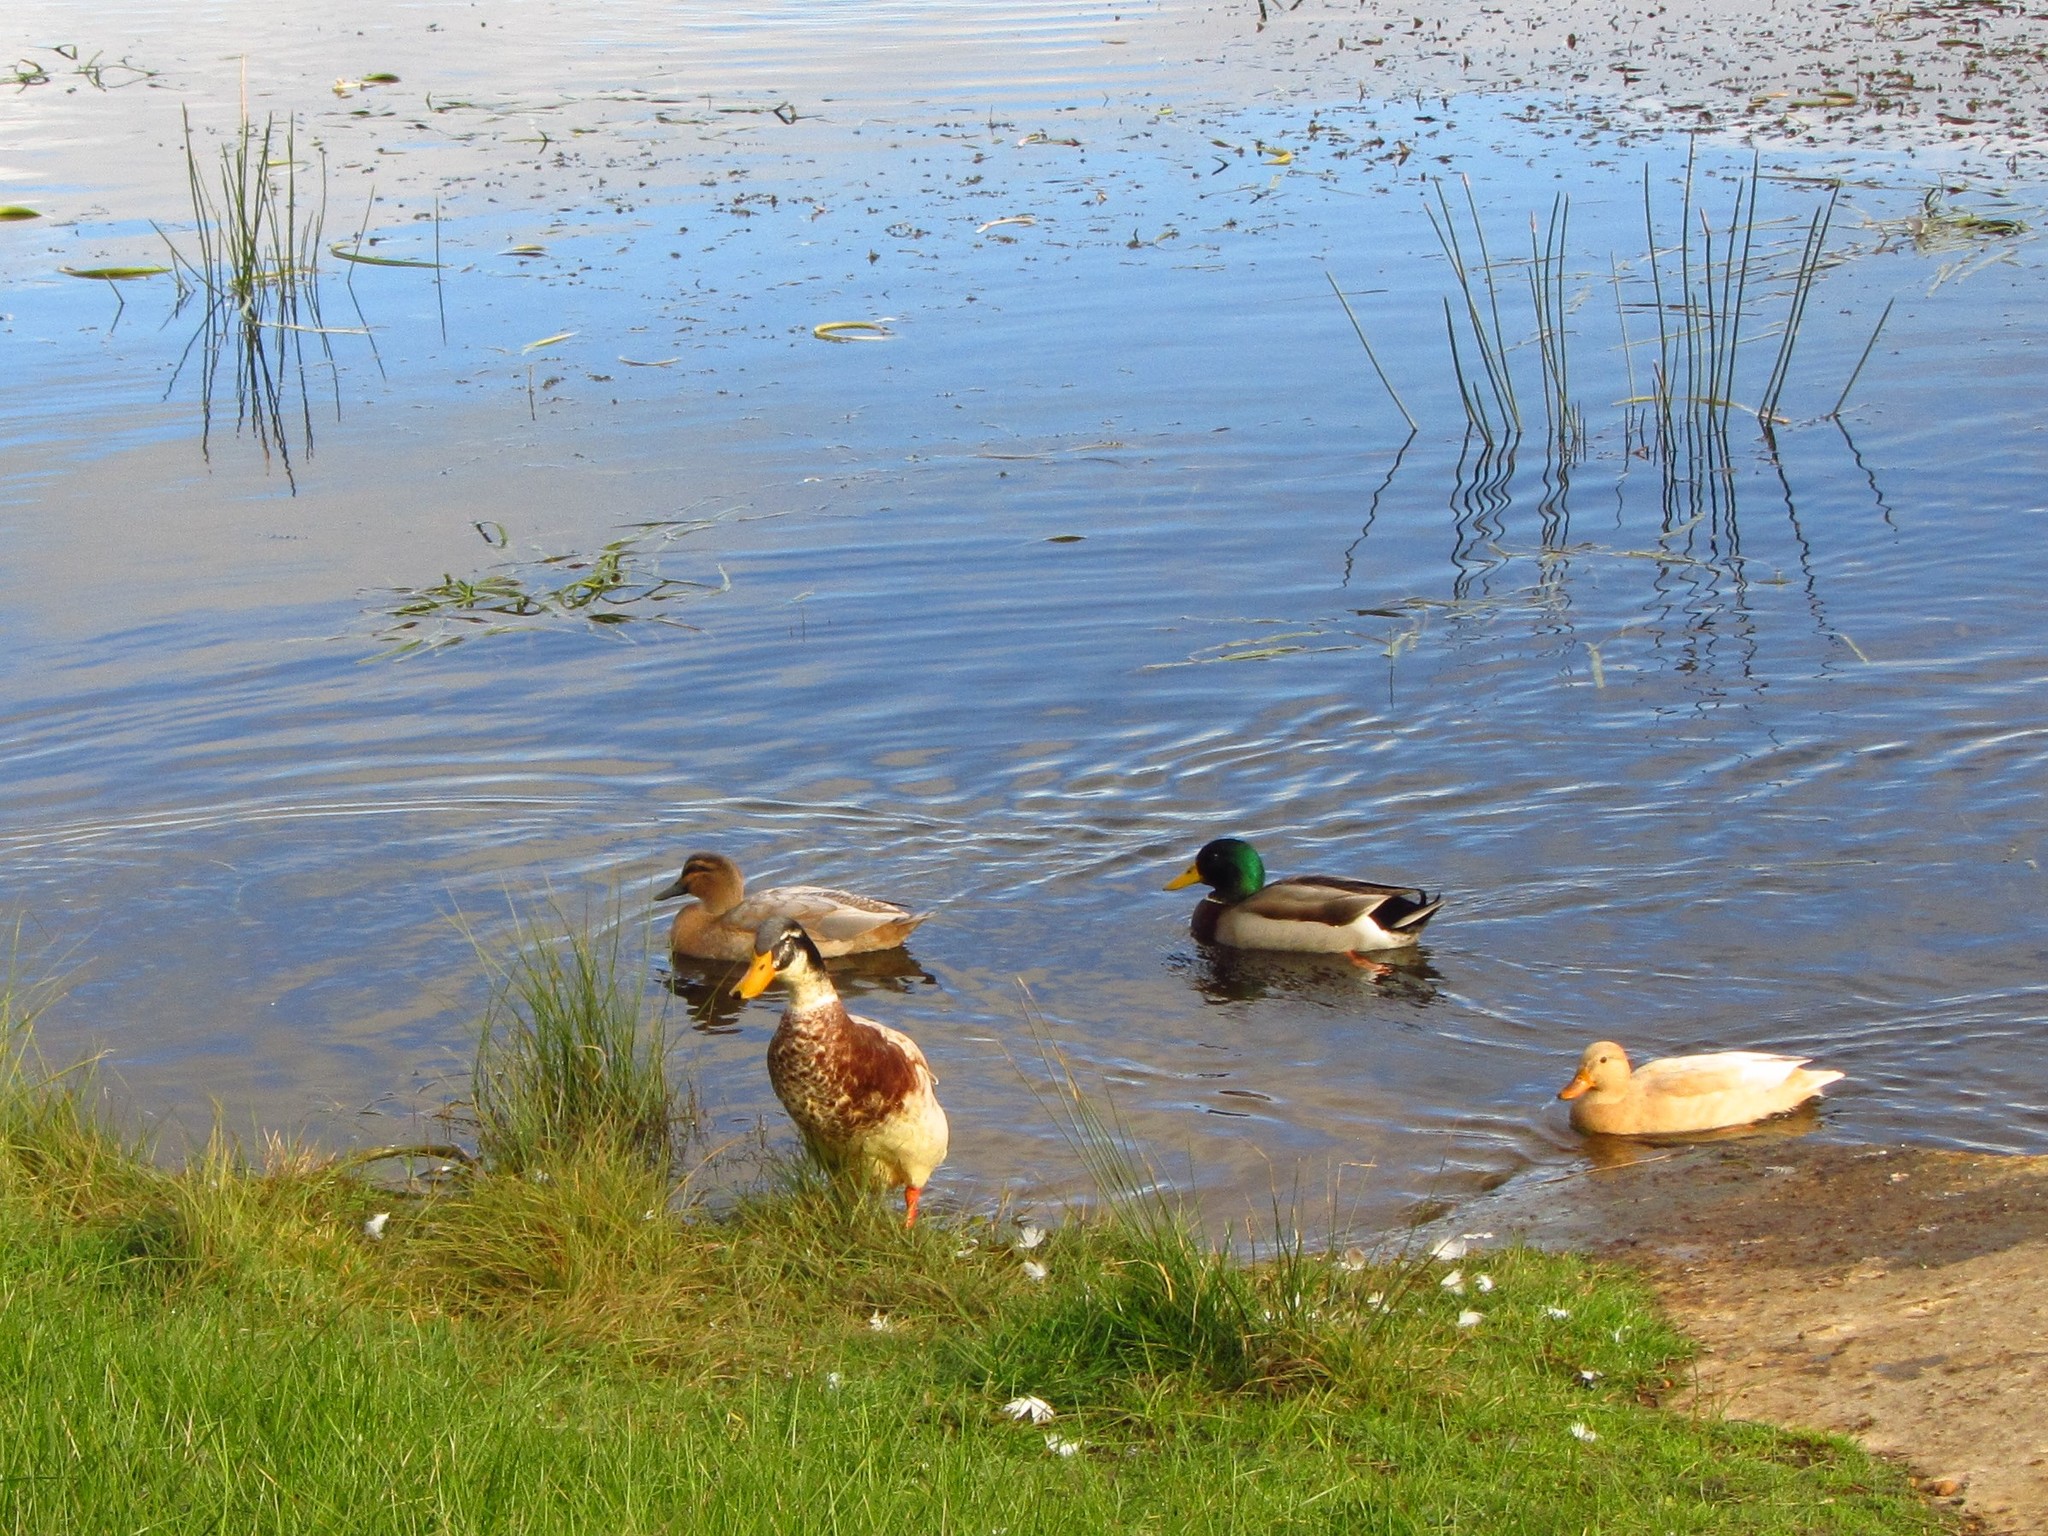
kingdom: Animalia
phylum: Chordata
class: Aves
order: Anseriformes
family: Anatidae
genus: Anas
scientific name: Anas platyrhynchos
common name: Mallard
